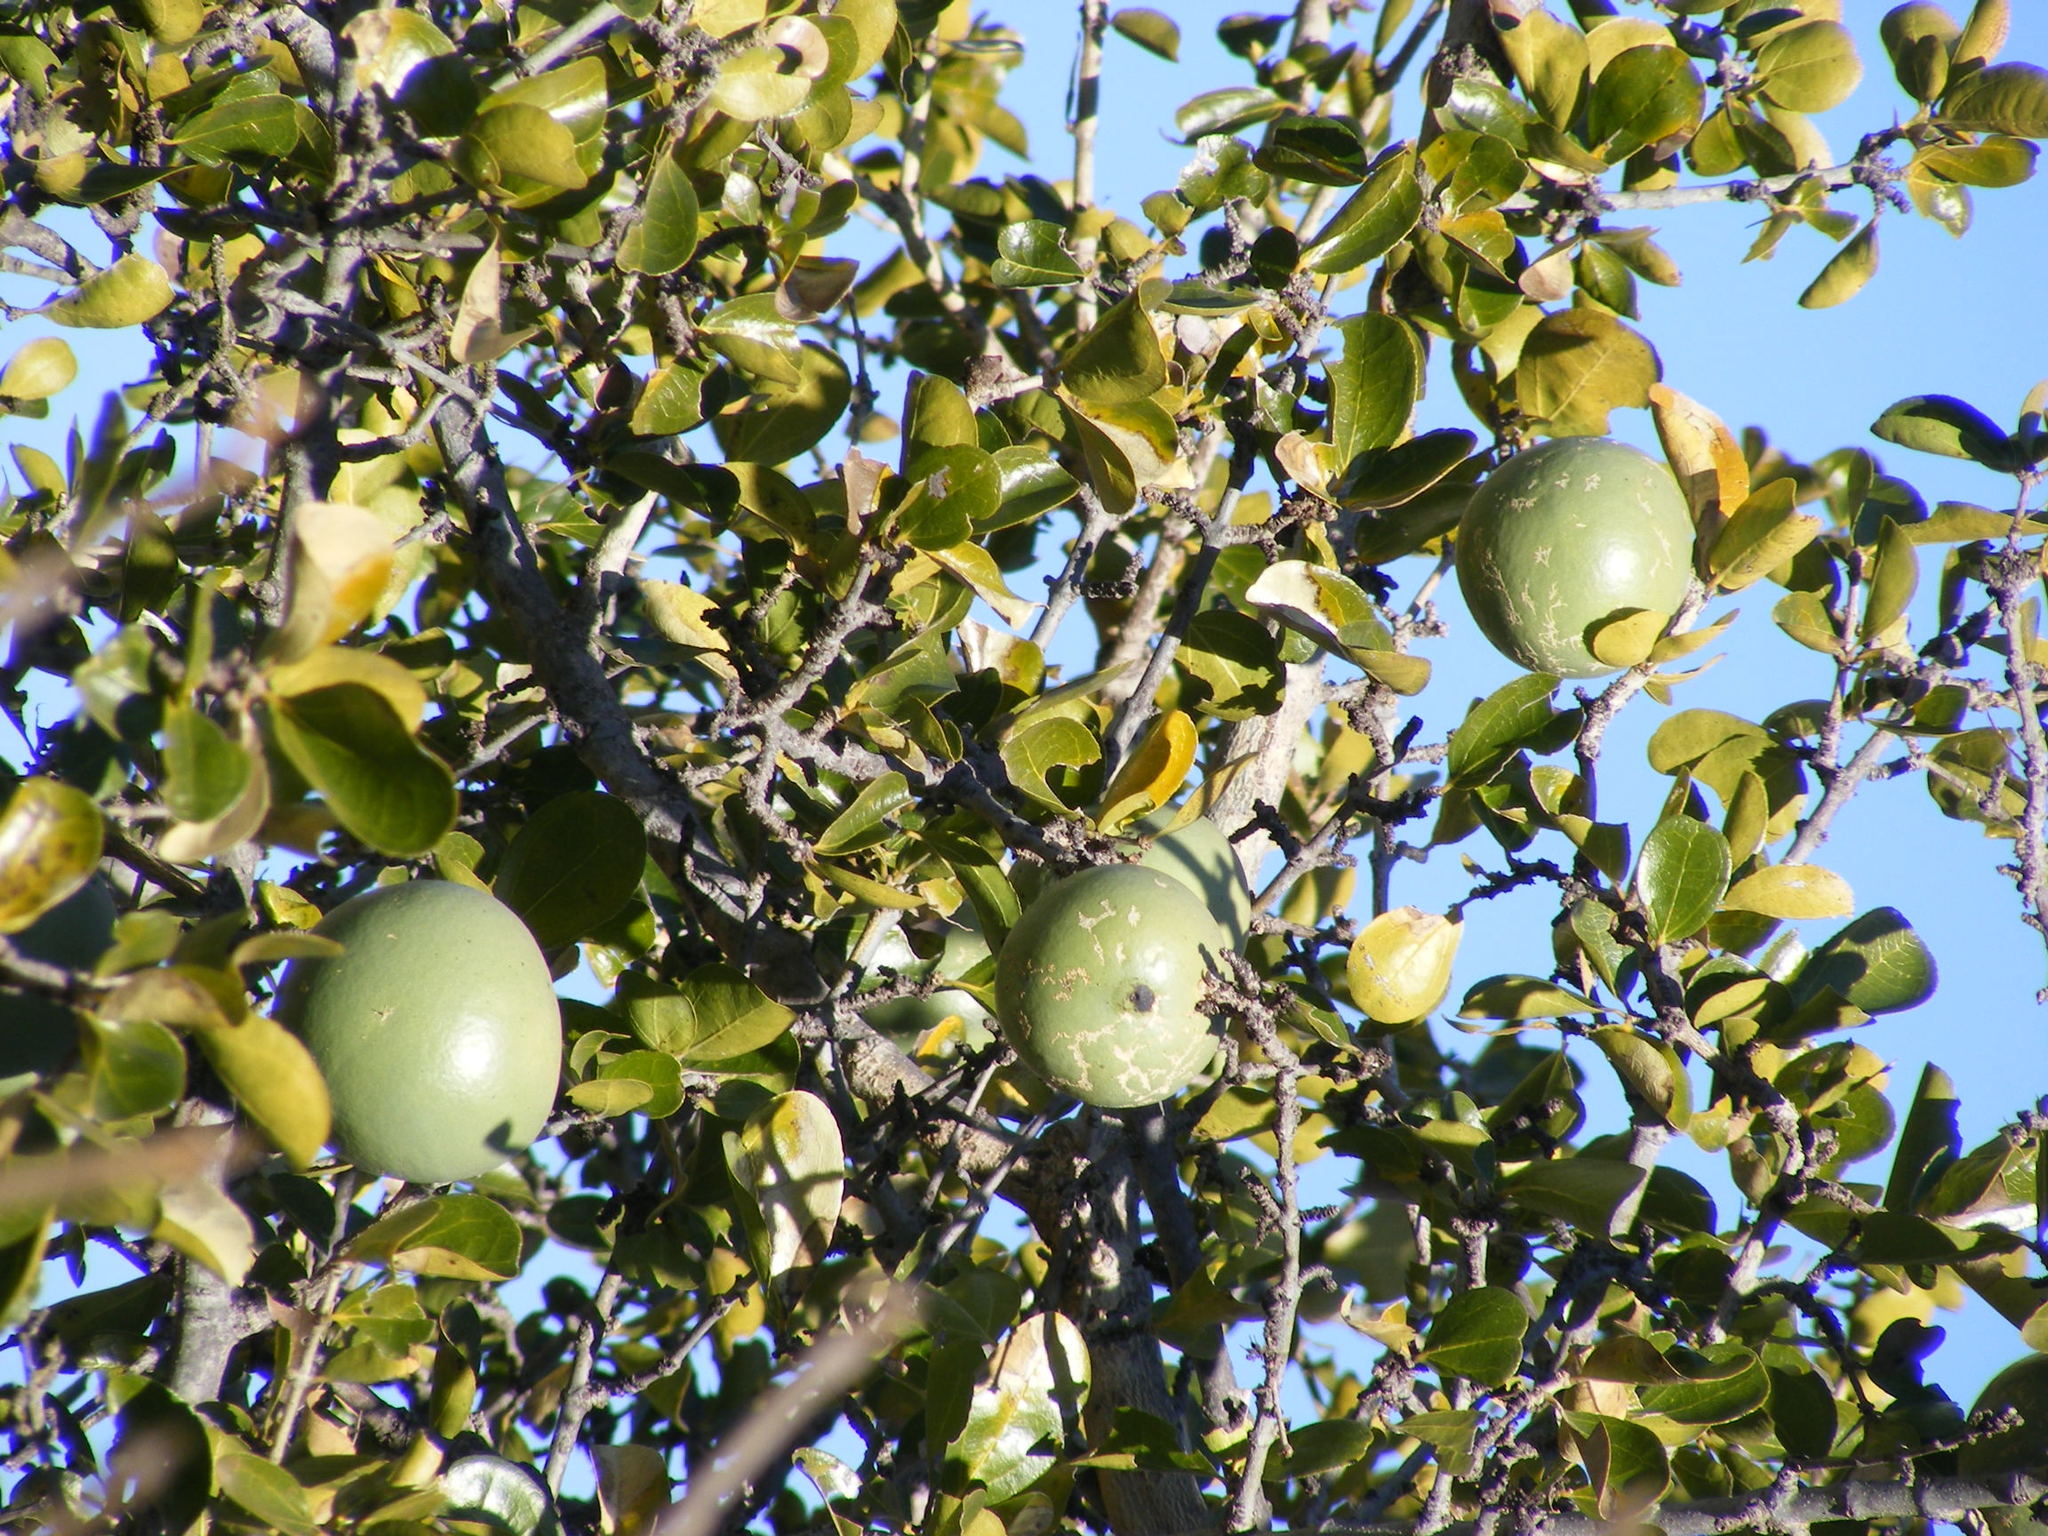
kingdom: Plantae
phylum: Tracheophyta
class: Magnoliopsida
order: Gentianales
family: Loganiaceae
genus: Strychnos
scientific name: Strychnos madagascariensis
